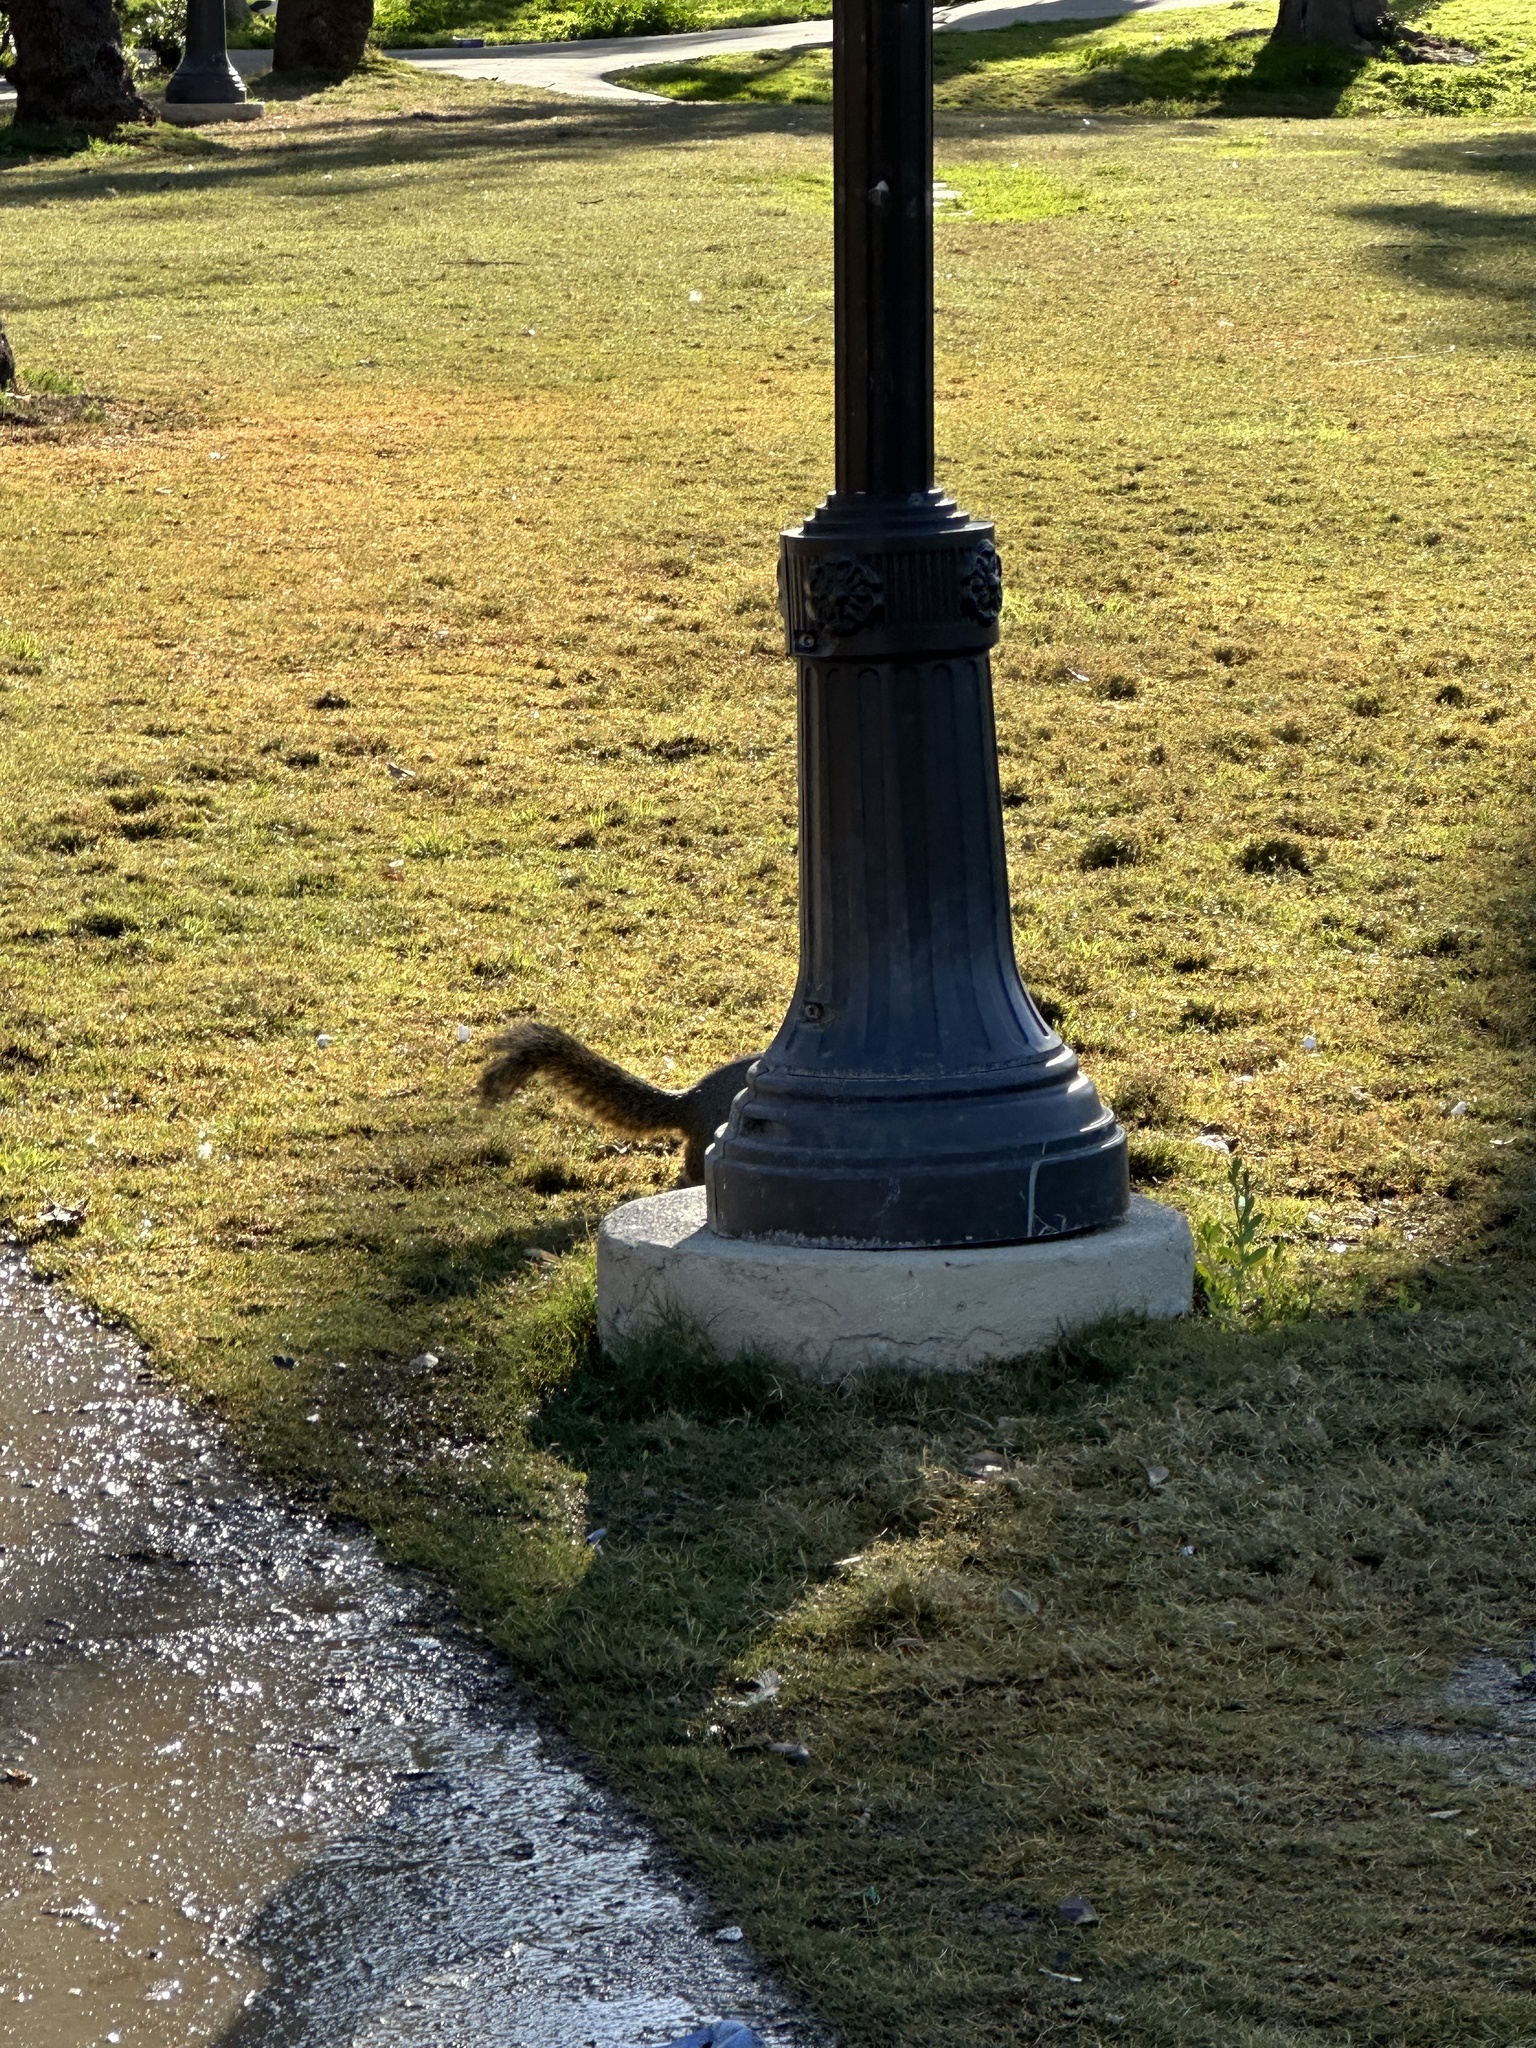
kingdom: Animalia
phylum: Chordata
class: Mammalia
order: Rodentia
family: Sciuridae
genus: Sciurus
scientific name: Sciurus niger
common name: Fox squirrel
